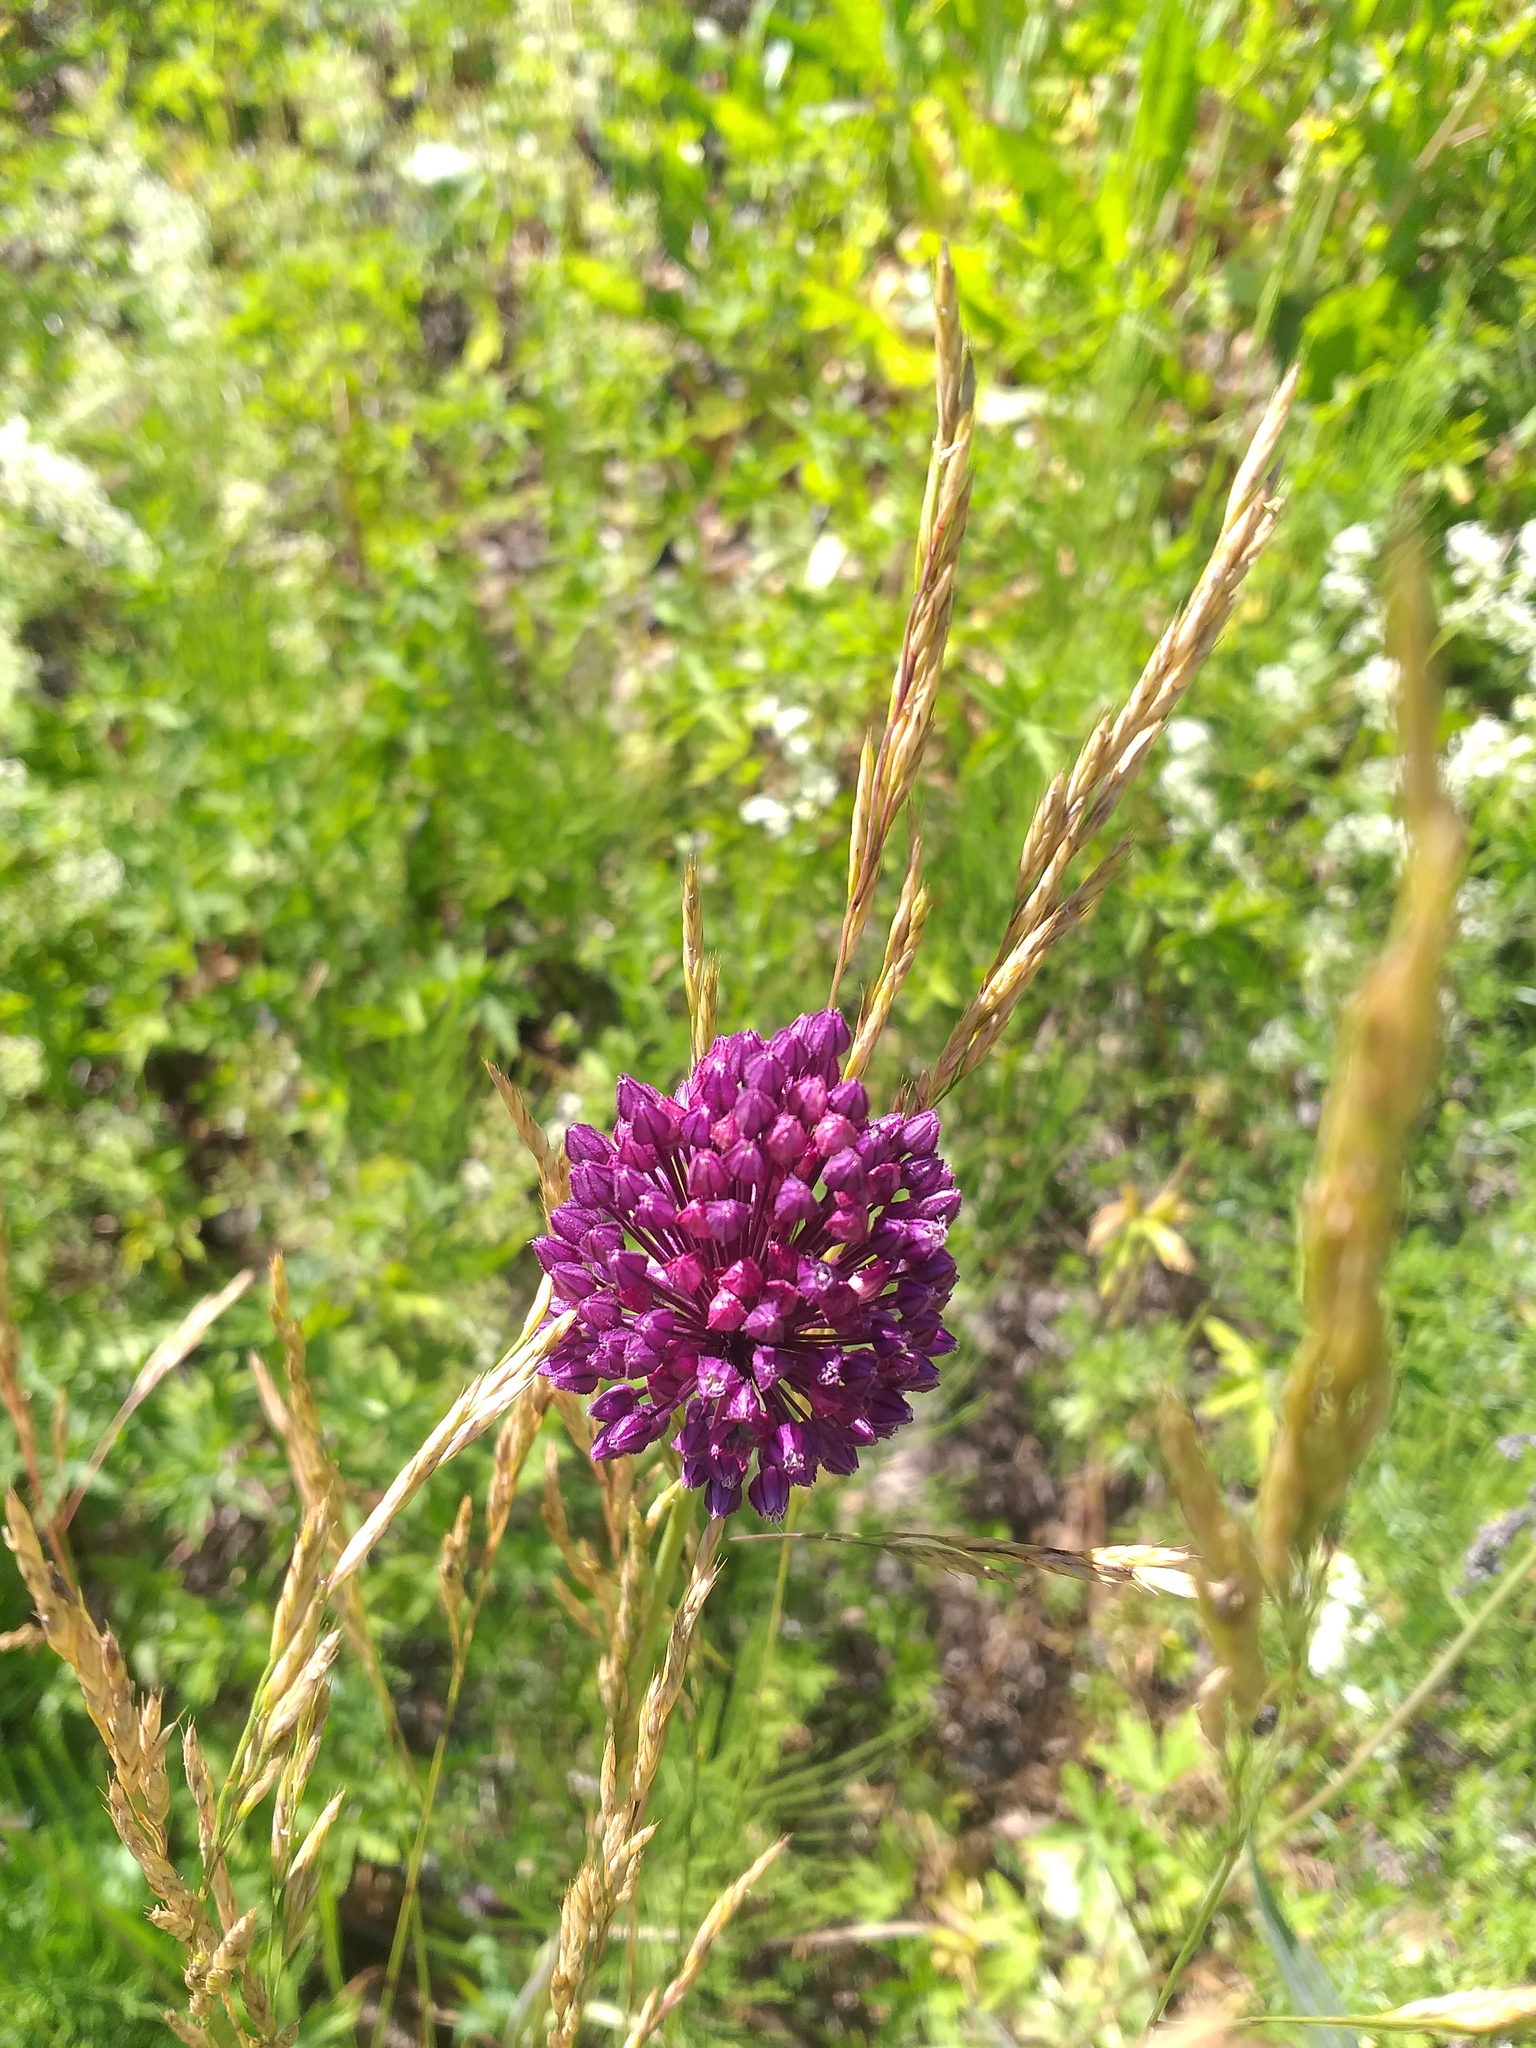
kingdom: Plantae
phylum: Tracheophyta
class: Liliopsida
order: Asparagales
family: Amaryllidaceae
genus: Allium
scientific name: Allium rotundum
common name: Sand leek
